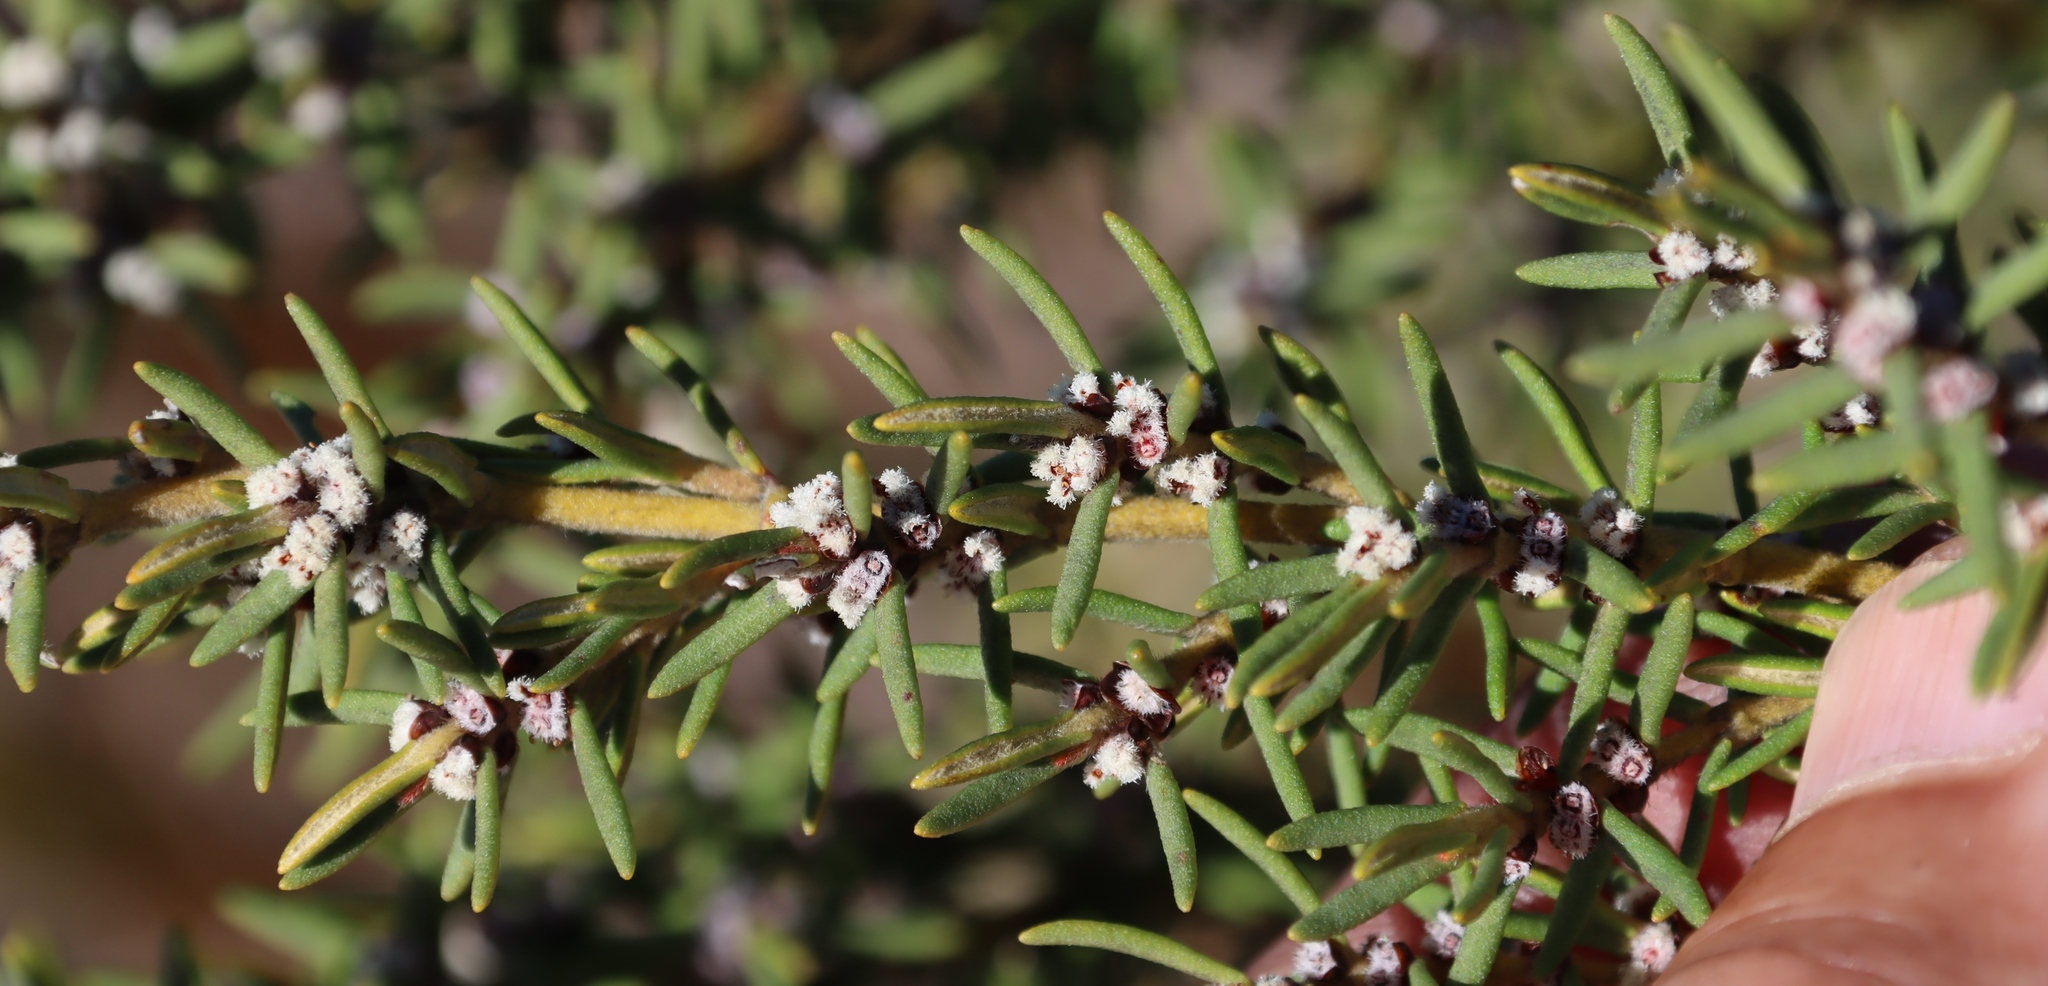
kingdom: Plantae
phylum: Tracheophyta
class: Magnoliopsida
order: Cornales
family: Grubbiaceae
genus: Grubbia
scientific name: Grubbia rosmarinifolia
